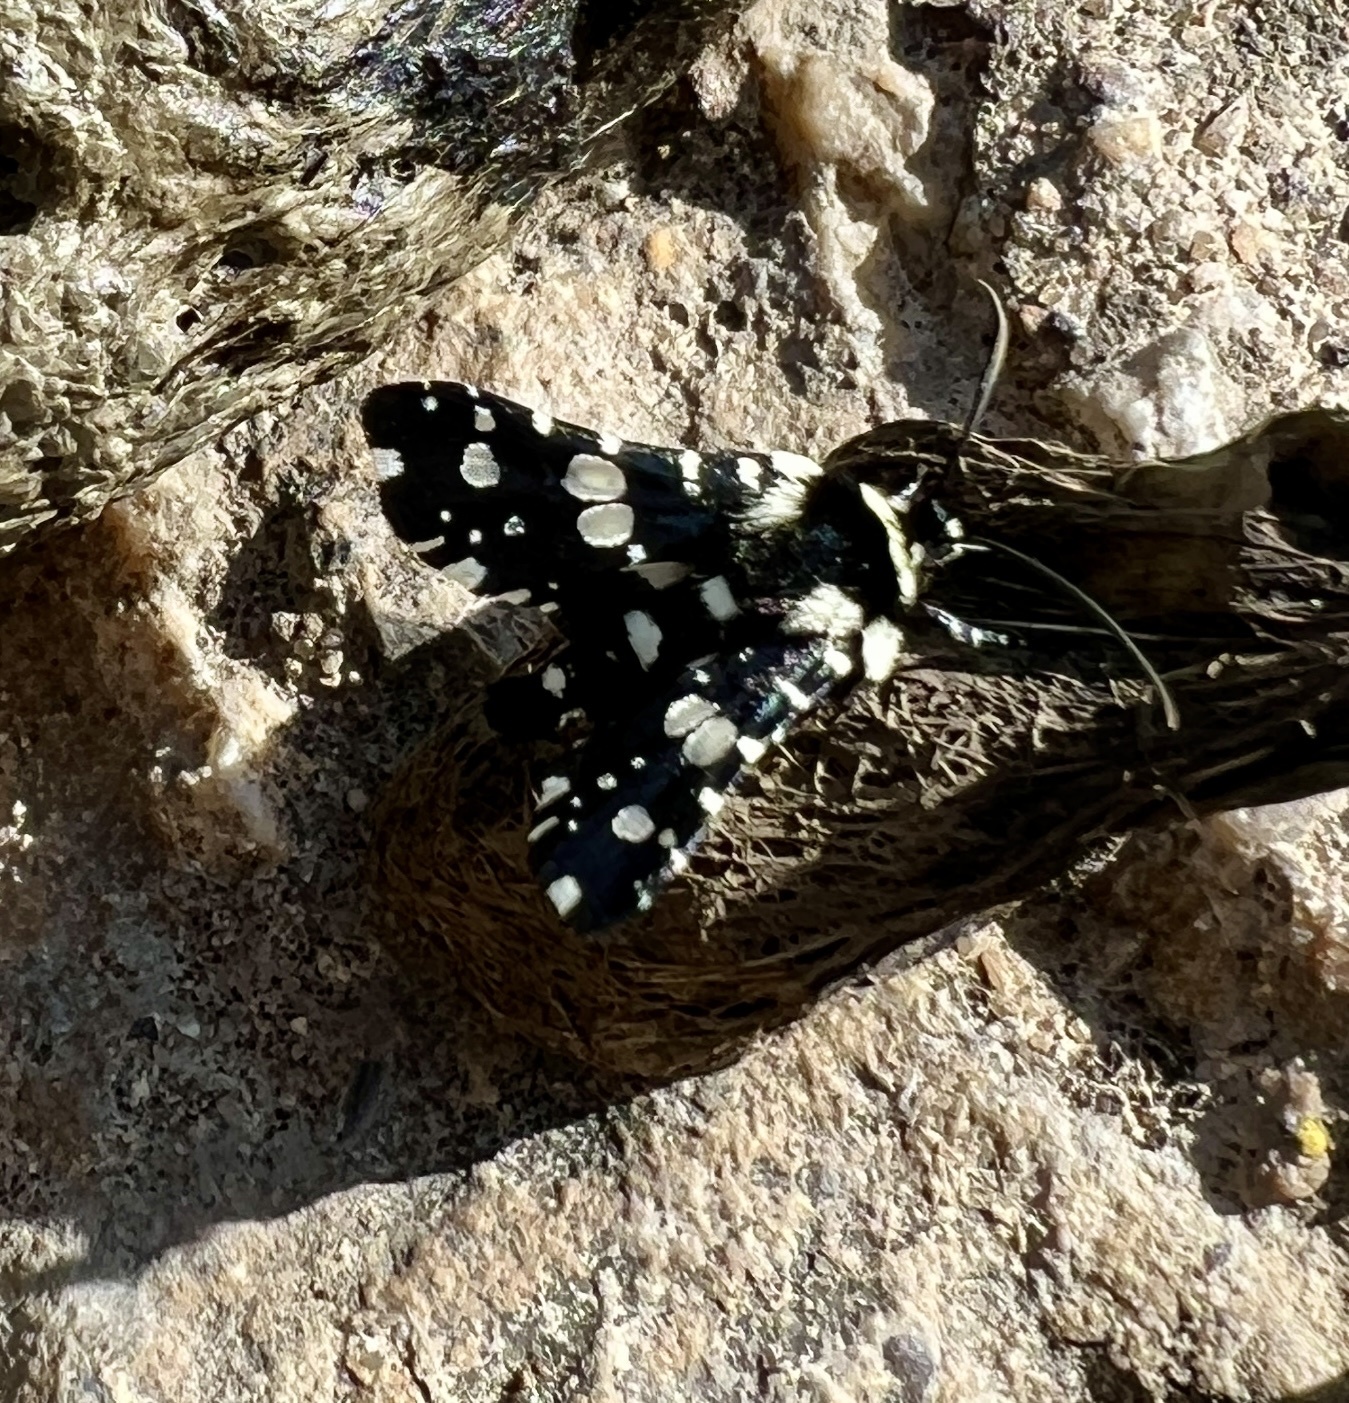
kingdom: Animalia
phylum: Arthropoda
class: Insecta
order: Lepidoptera
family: Thyrididae
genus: Pseudothyris
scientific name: Pseudothyris sepulchralis
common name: Mournful thyris moth
